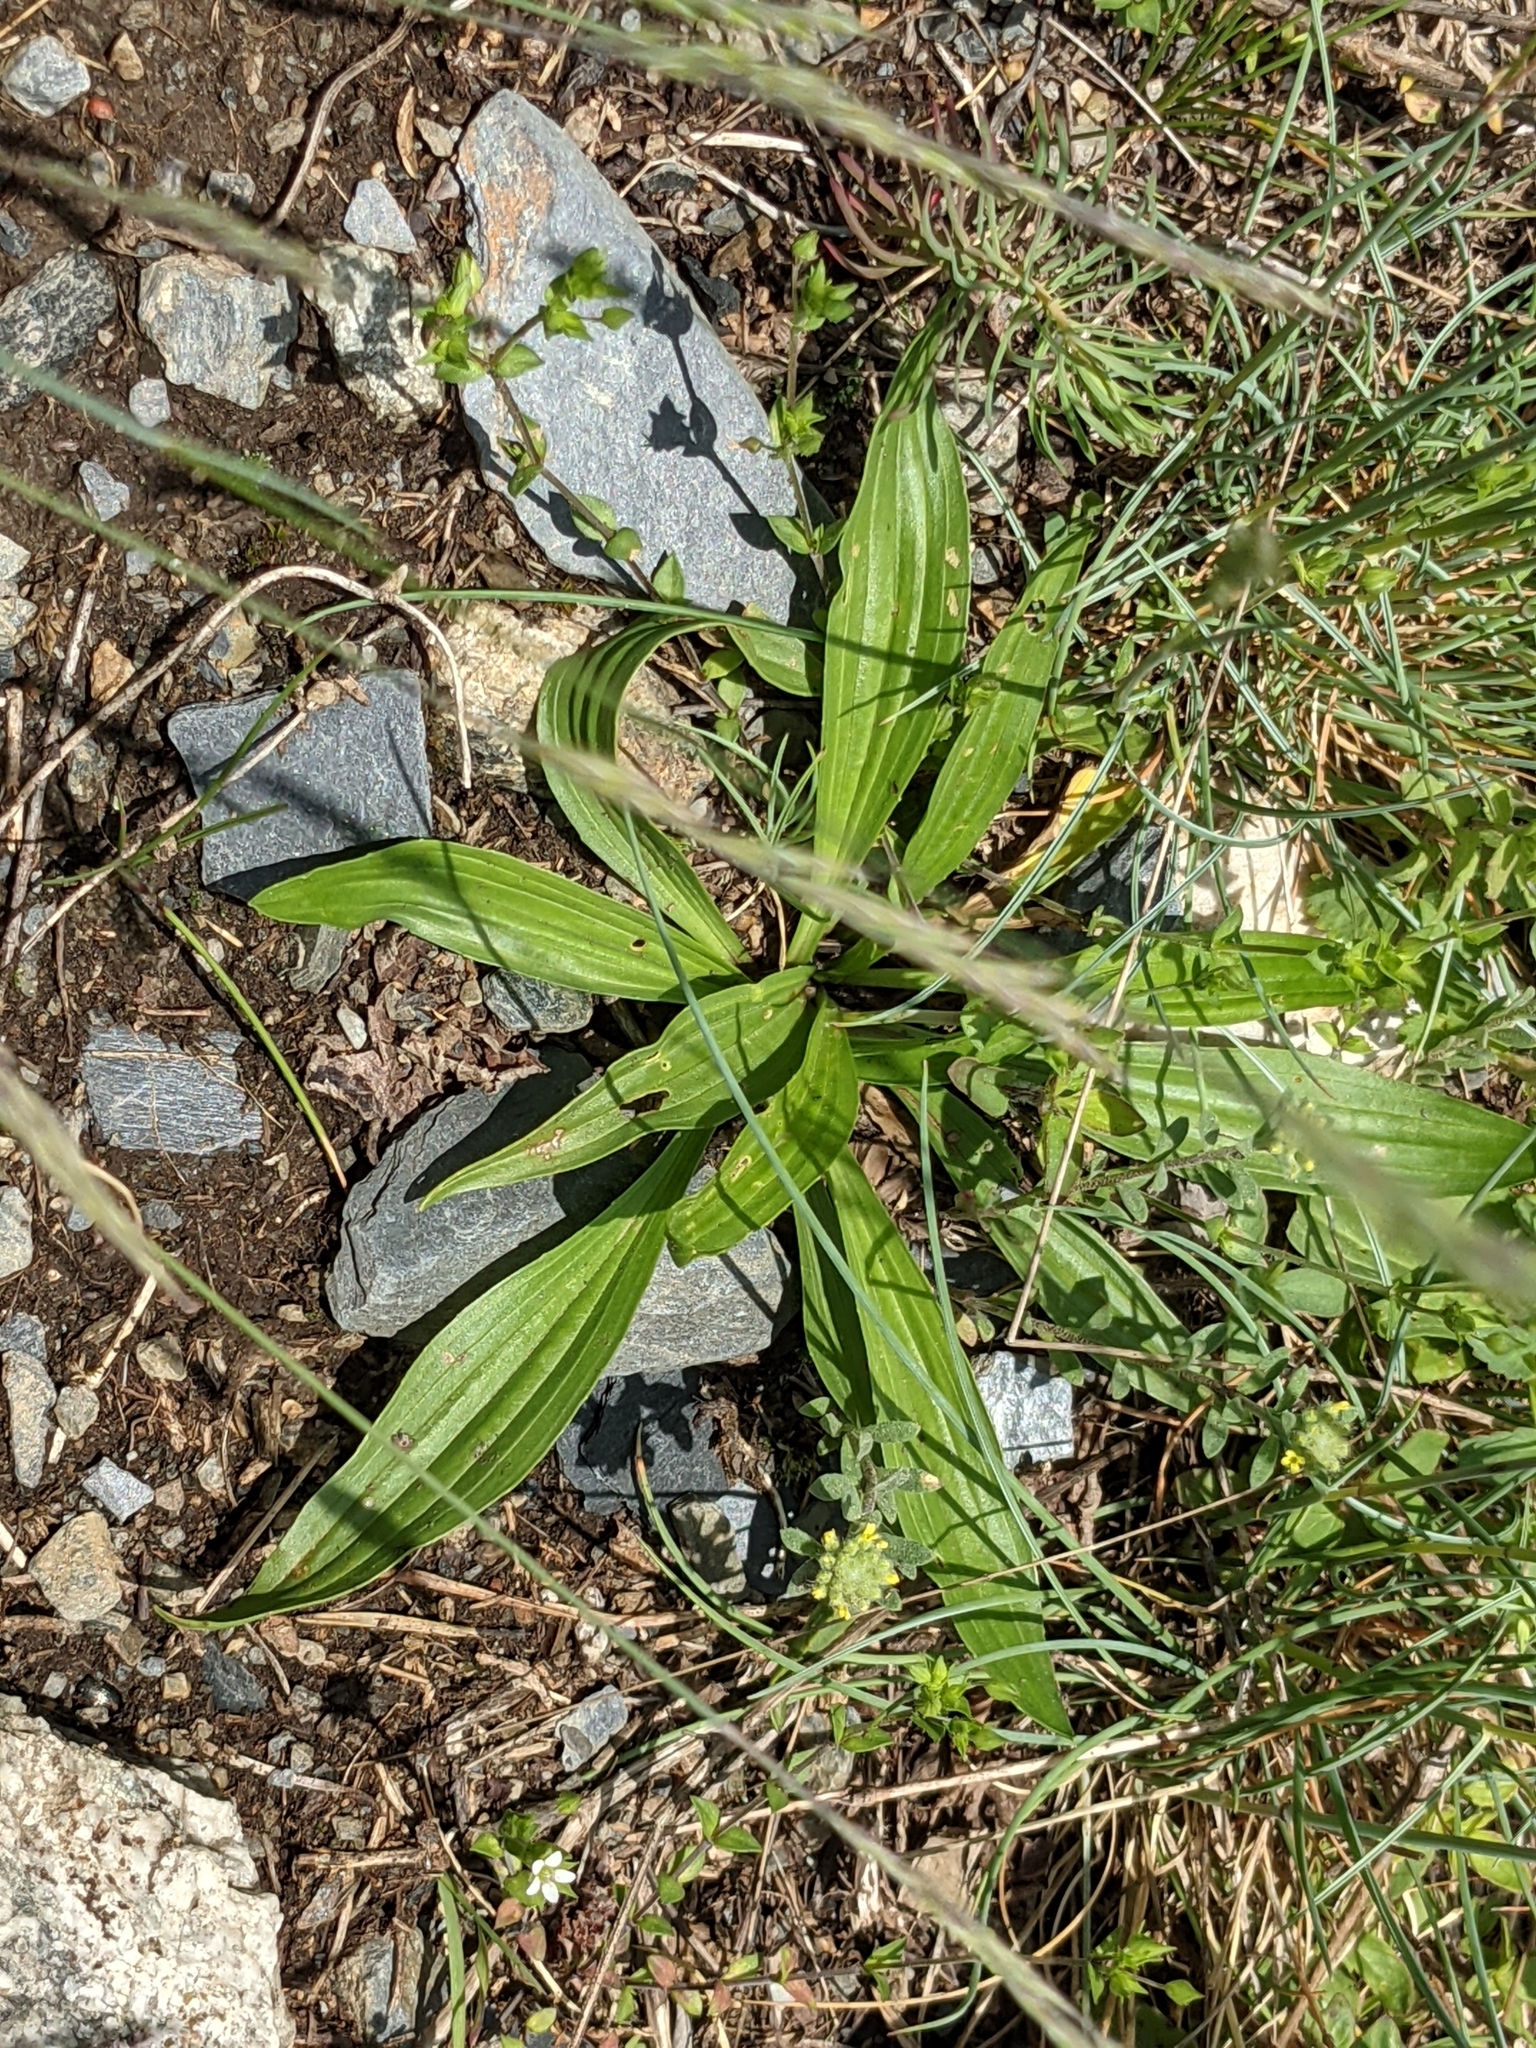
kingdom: Plantae
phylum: Tracheophyta
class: Magnoliopsida
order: Lamiales
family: Plantaginaceae
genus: Plantago
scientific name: Plantago lanceolata
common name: Ribwort plantain
